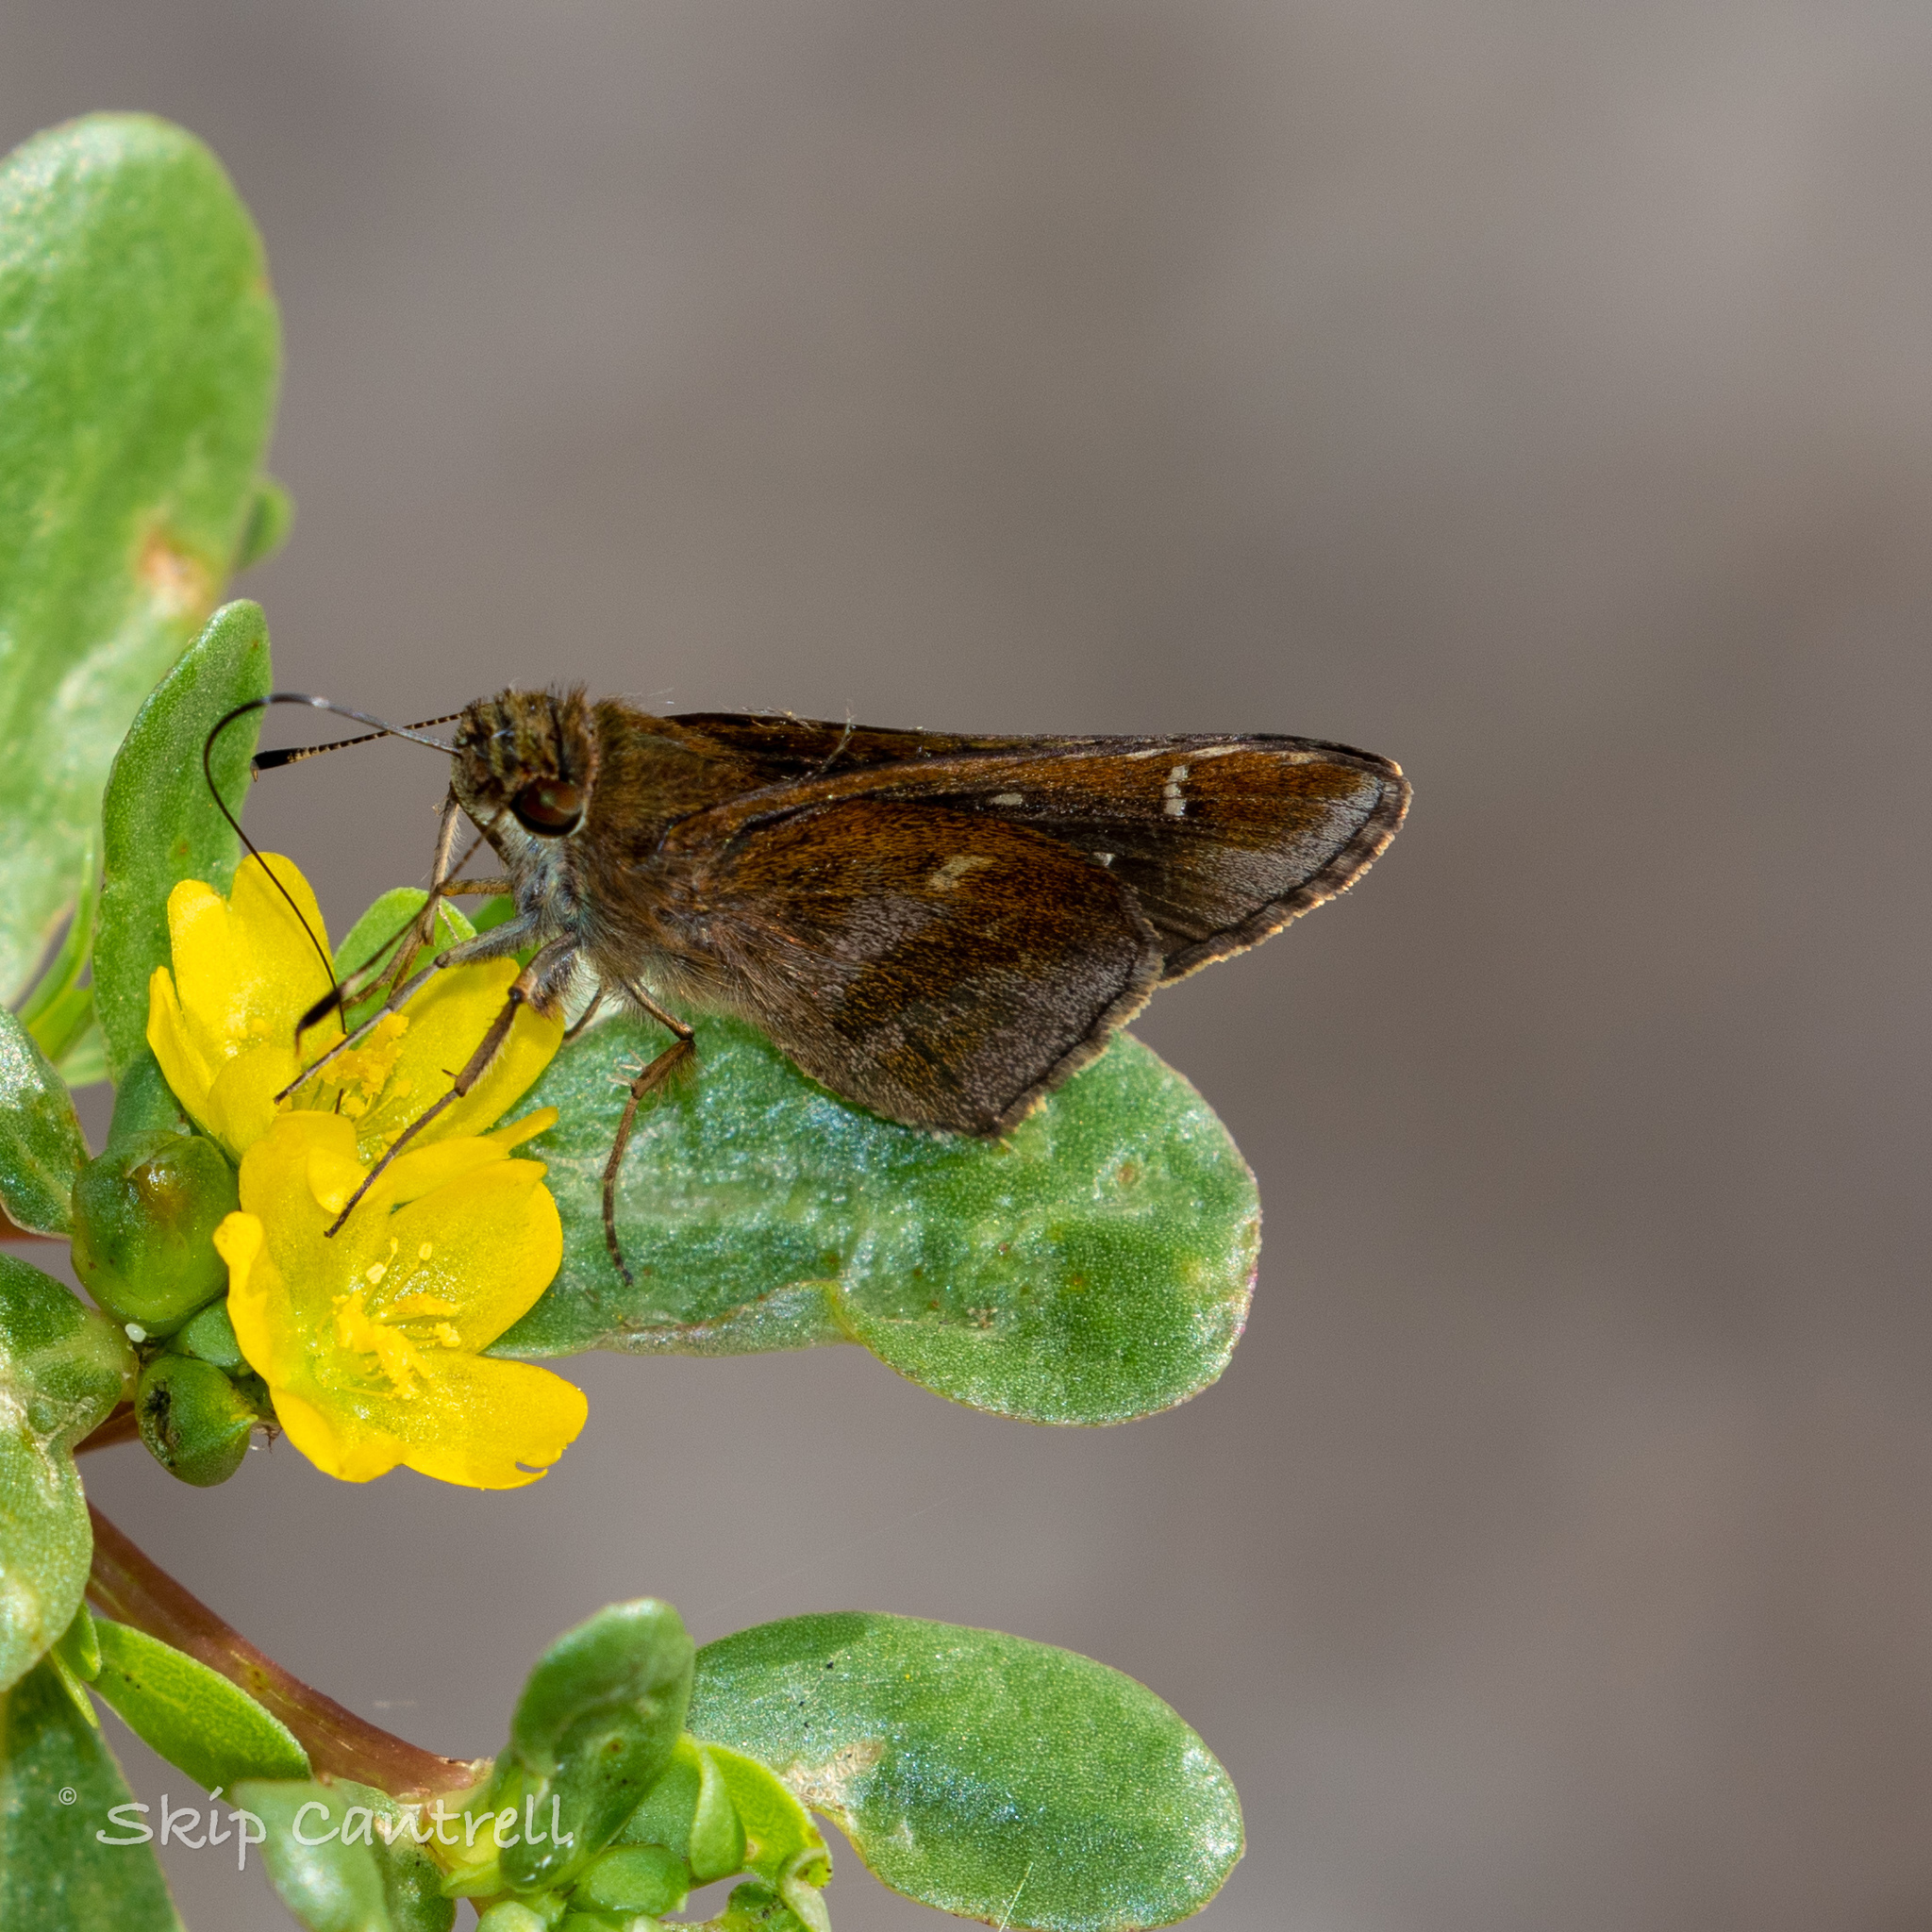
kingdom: Animalia
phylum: Arthropoda
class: Insecta
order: Lepidoptera
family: Hesperiidae
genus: Lerema
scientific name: Lerema accius
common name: Clouded skipper
